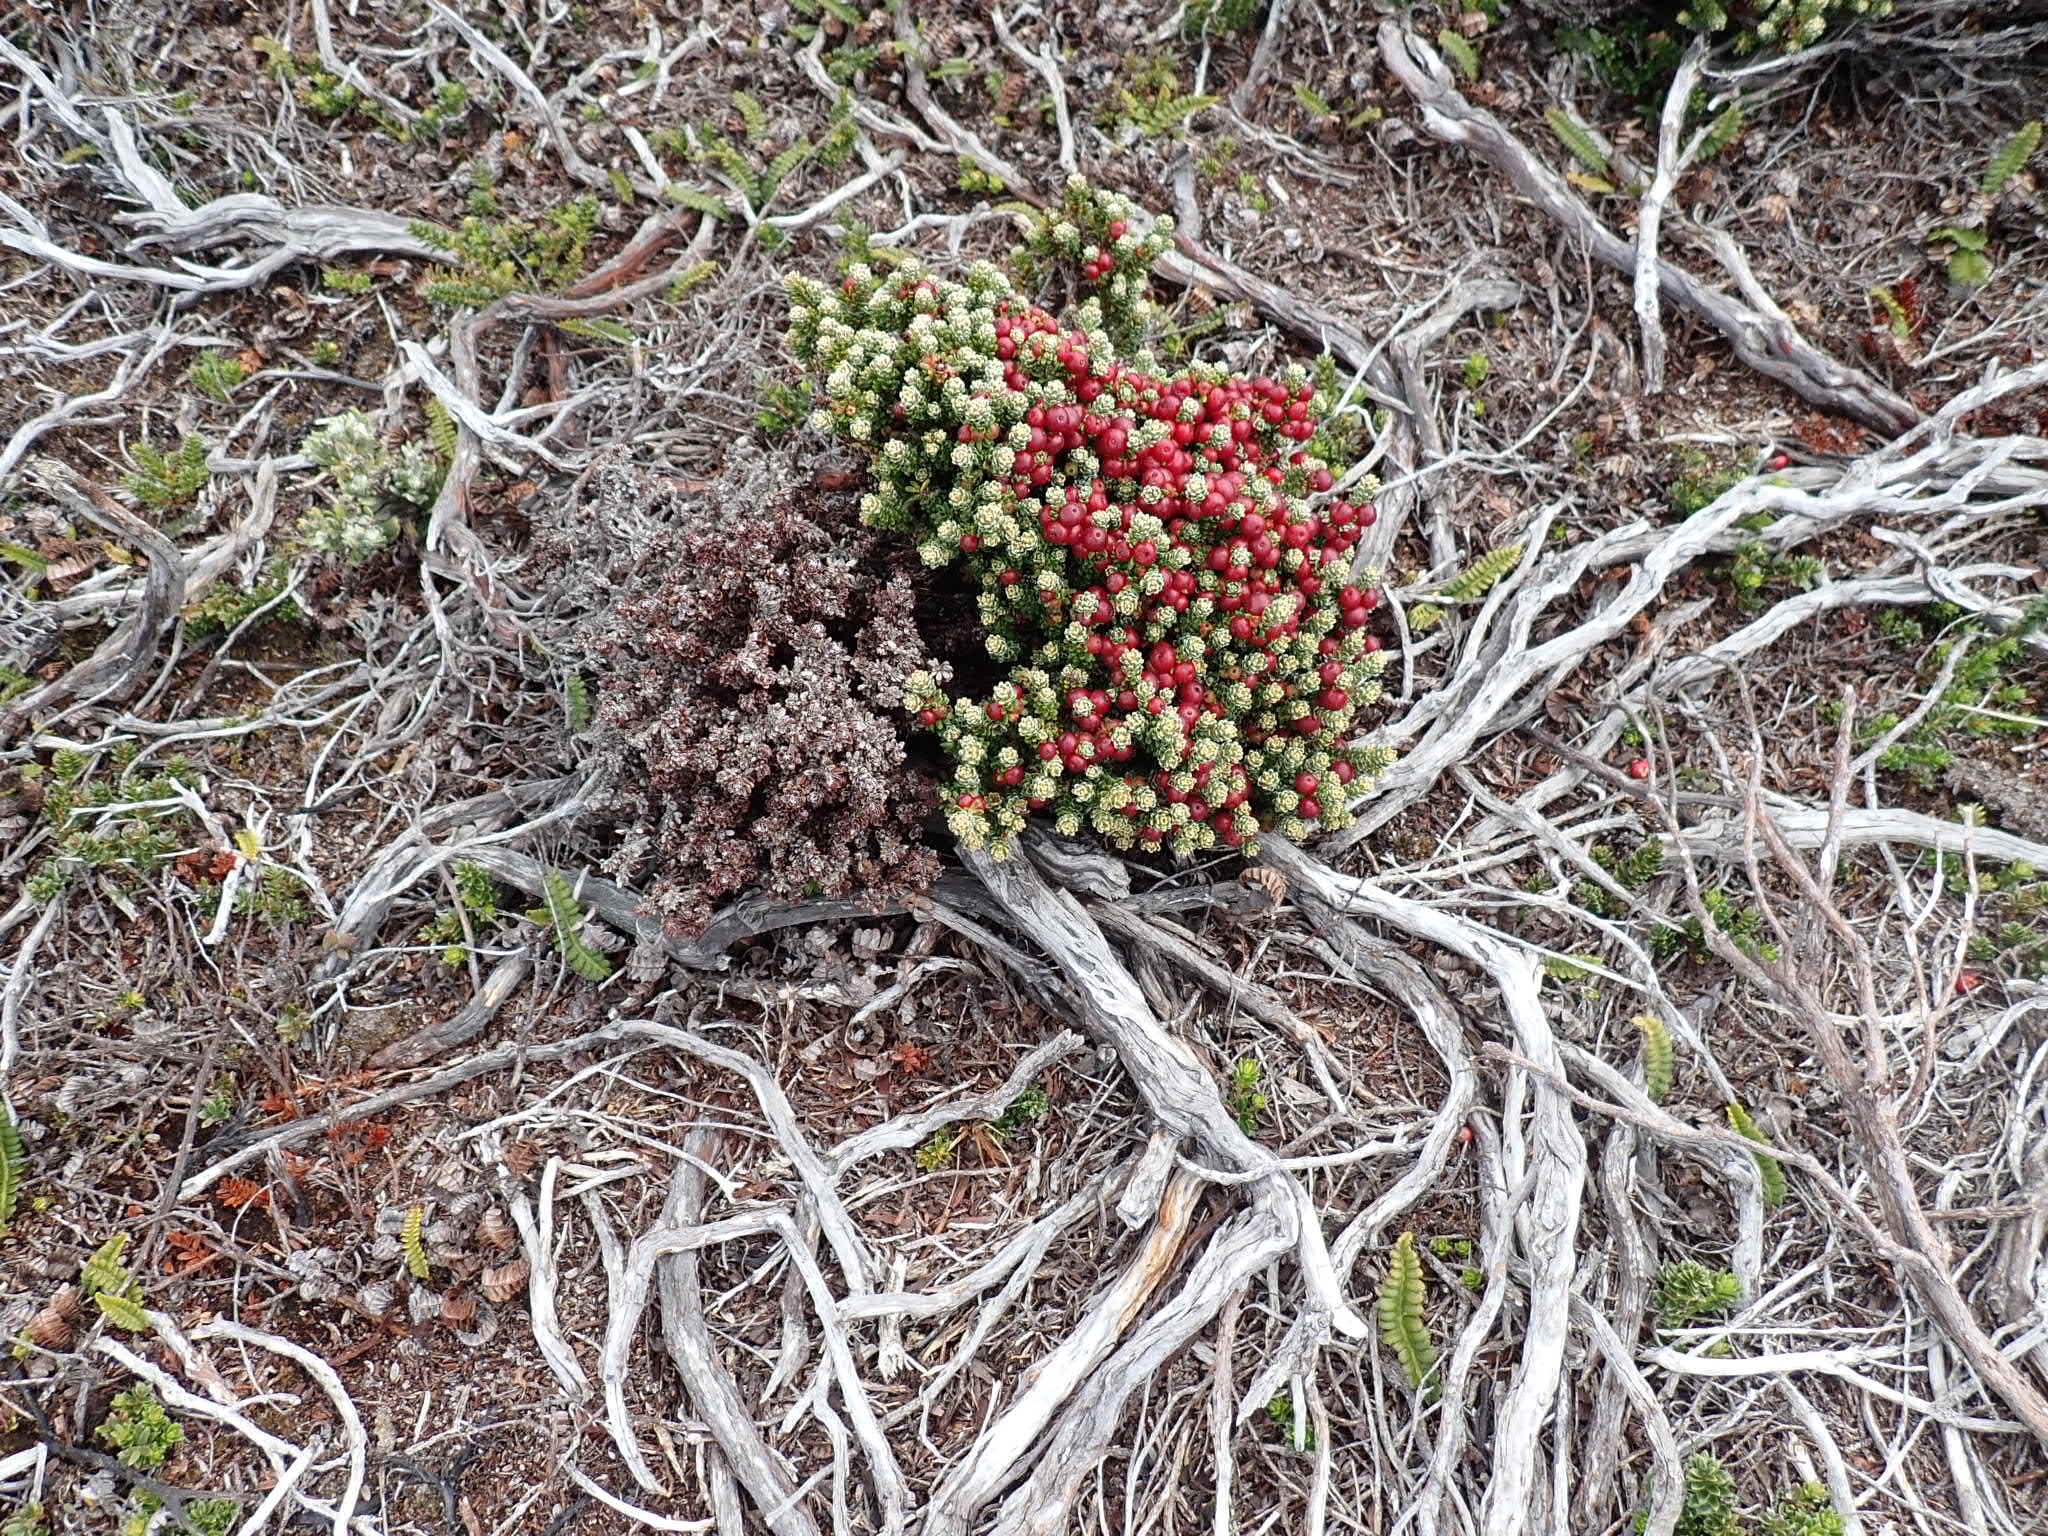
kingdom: Plantae
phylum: Tracheophyta
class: Magnoliopsida
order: Ericales
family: Ericaceae
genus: Empetrum
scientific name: Empetrum rubrum
